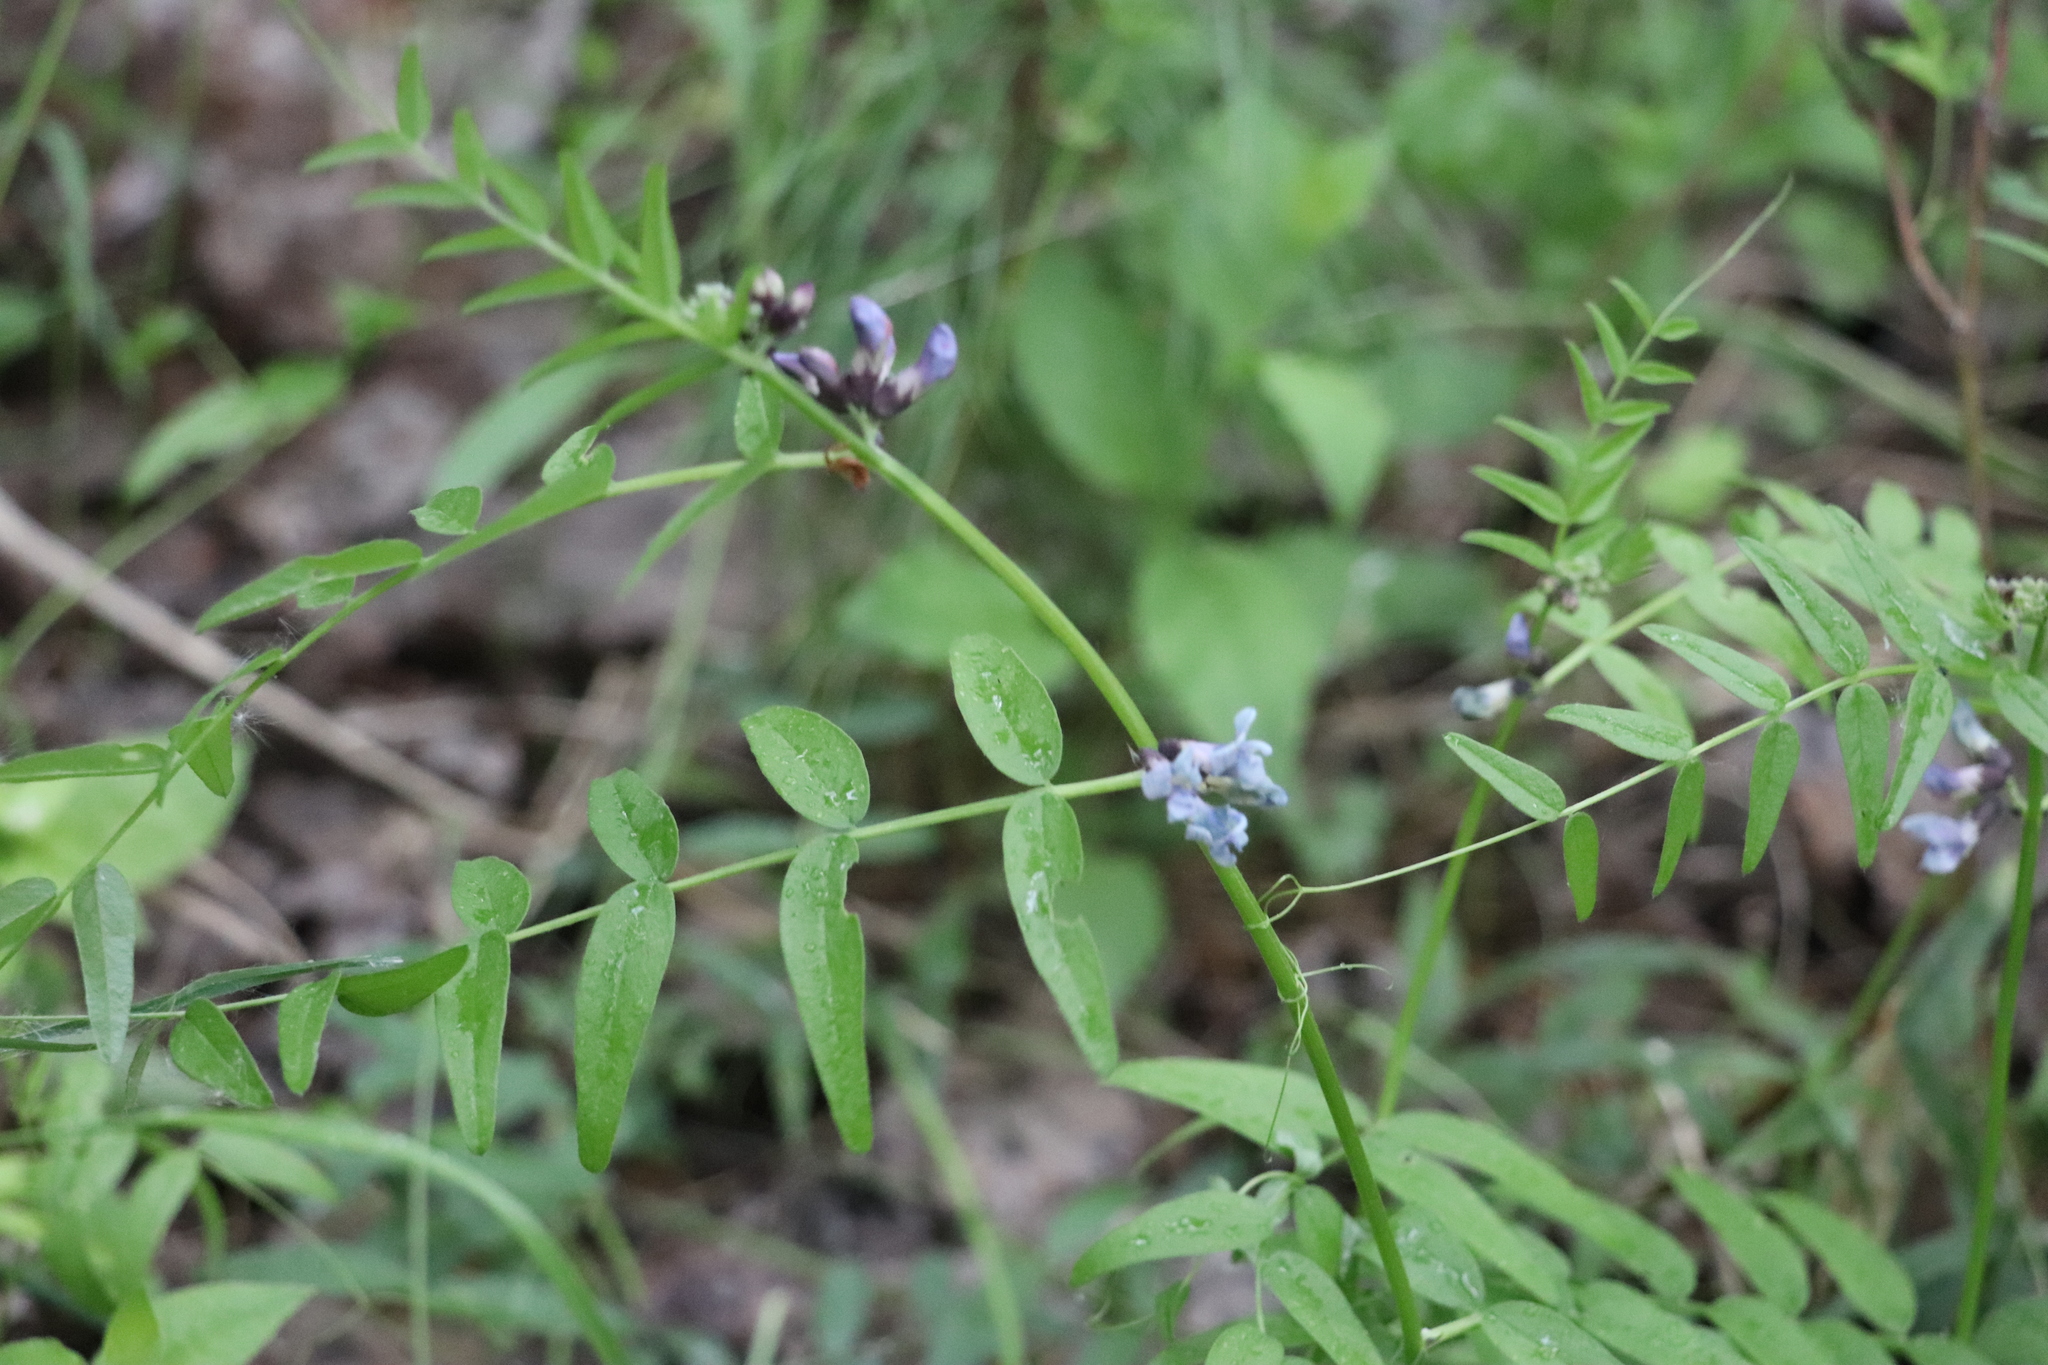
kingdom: Plantae
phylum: Tracheophyta
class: Magnoliopsida
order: Fabales
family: Fabaceae
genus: Vicia
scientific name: Vicia sepium
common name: Bush vetch
